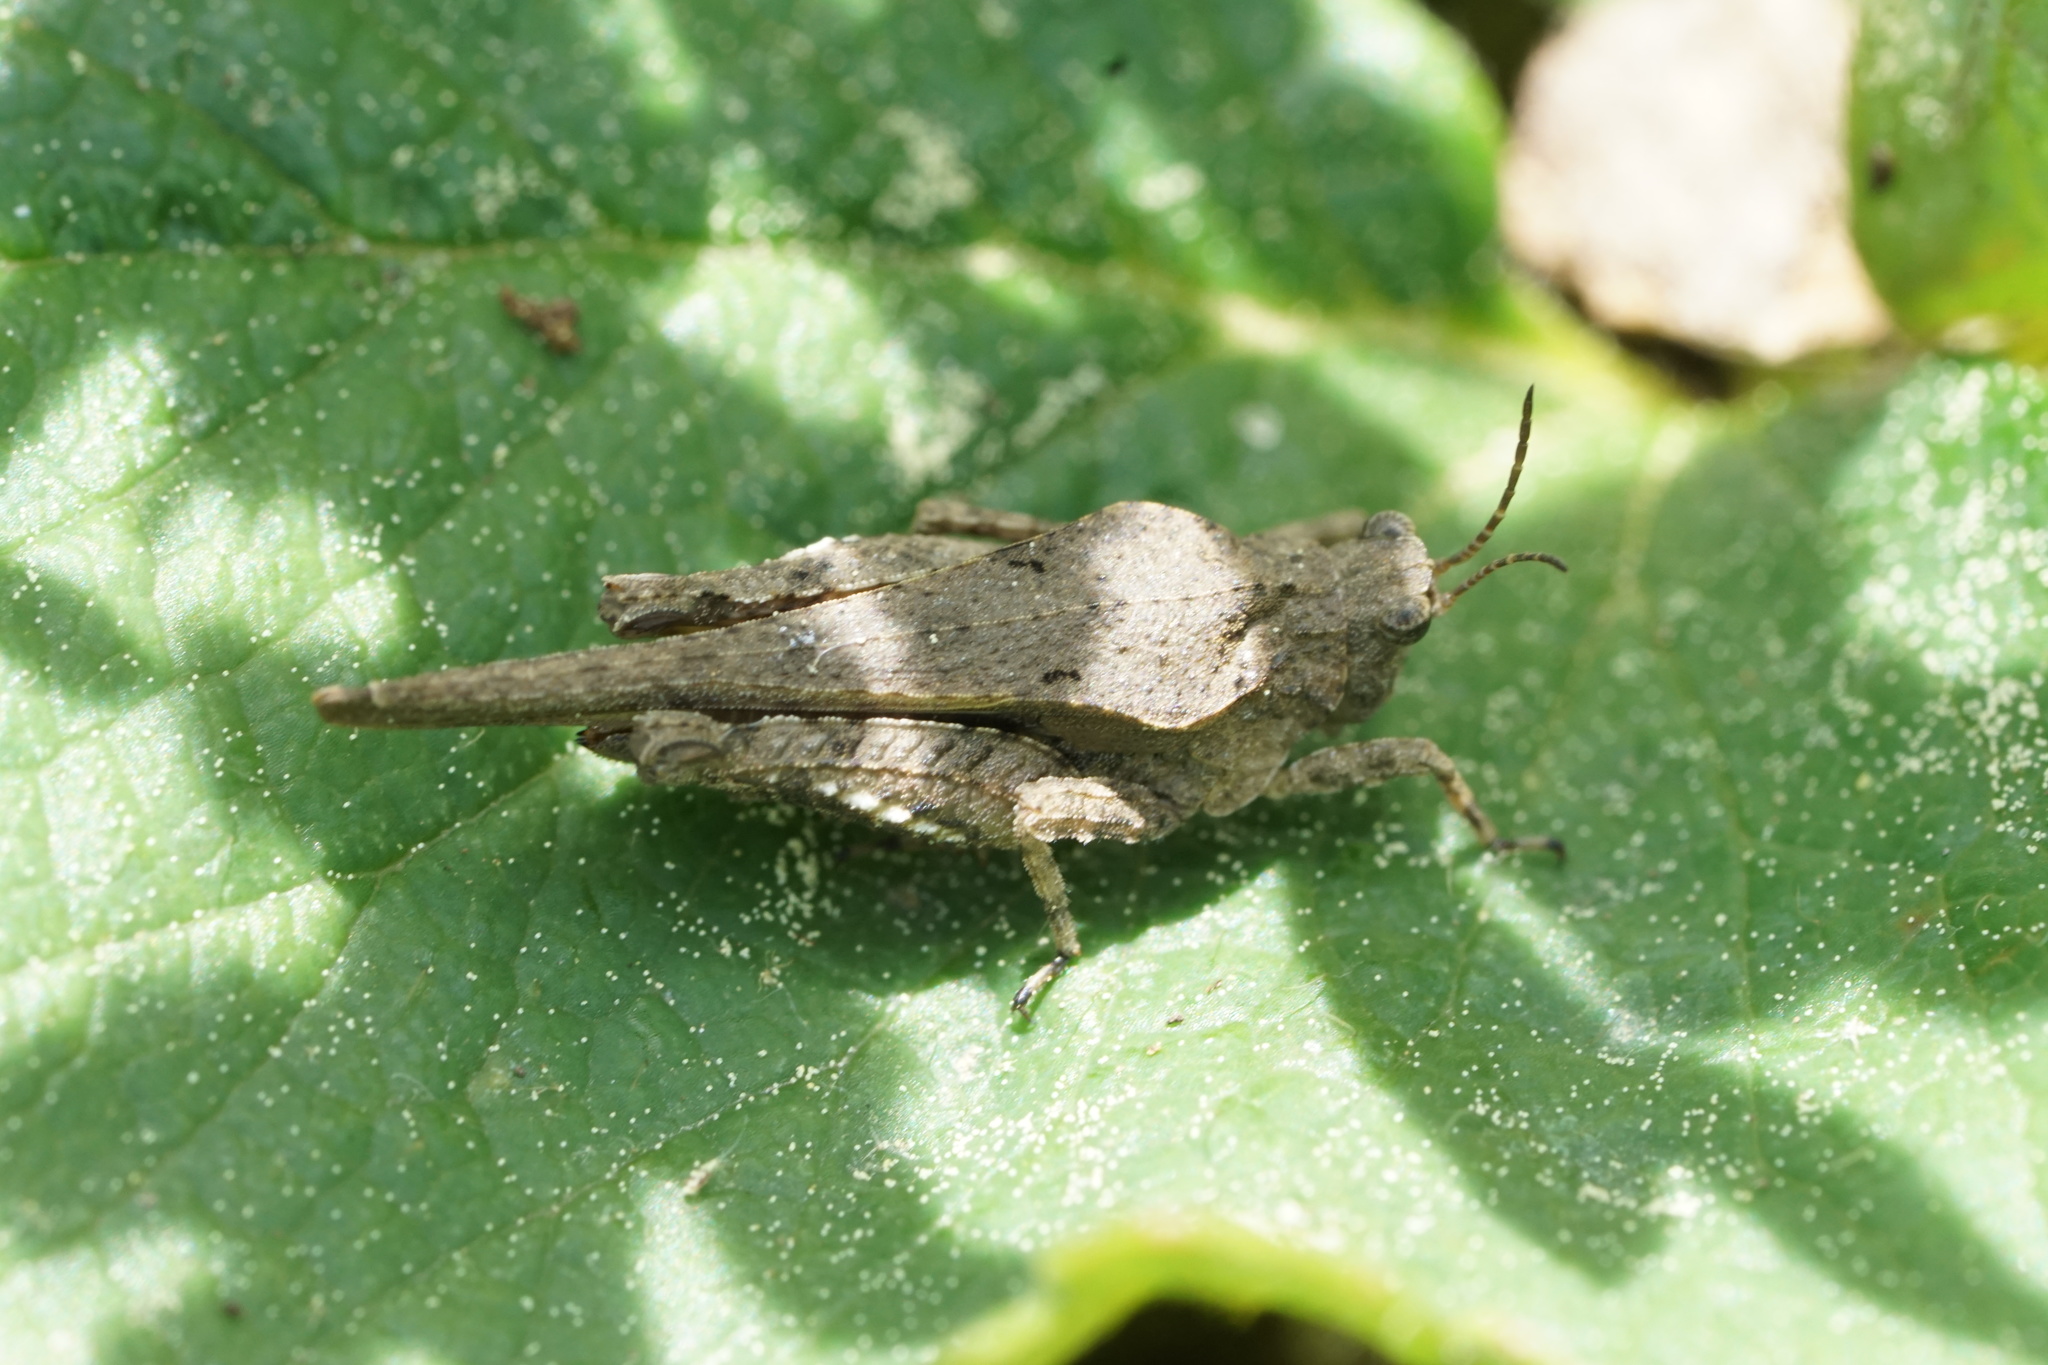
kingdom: Animalia
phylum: Arthropoda
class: Insecta
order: Orthoptera
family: Tetrigidae
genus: Tetrix
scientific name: Tetrix ornata
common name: Ornate grouse locust
